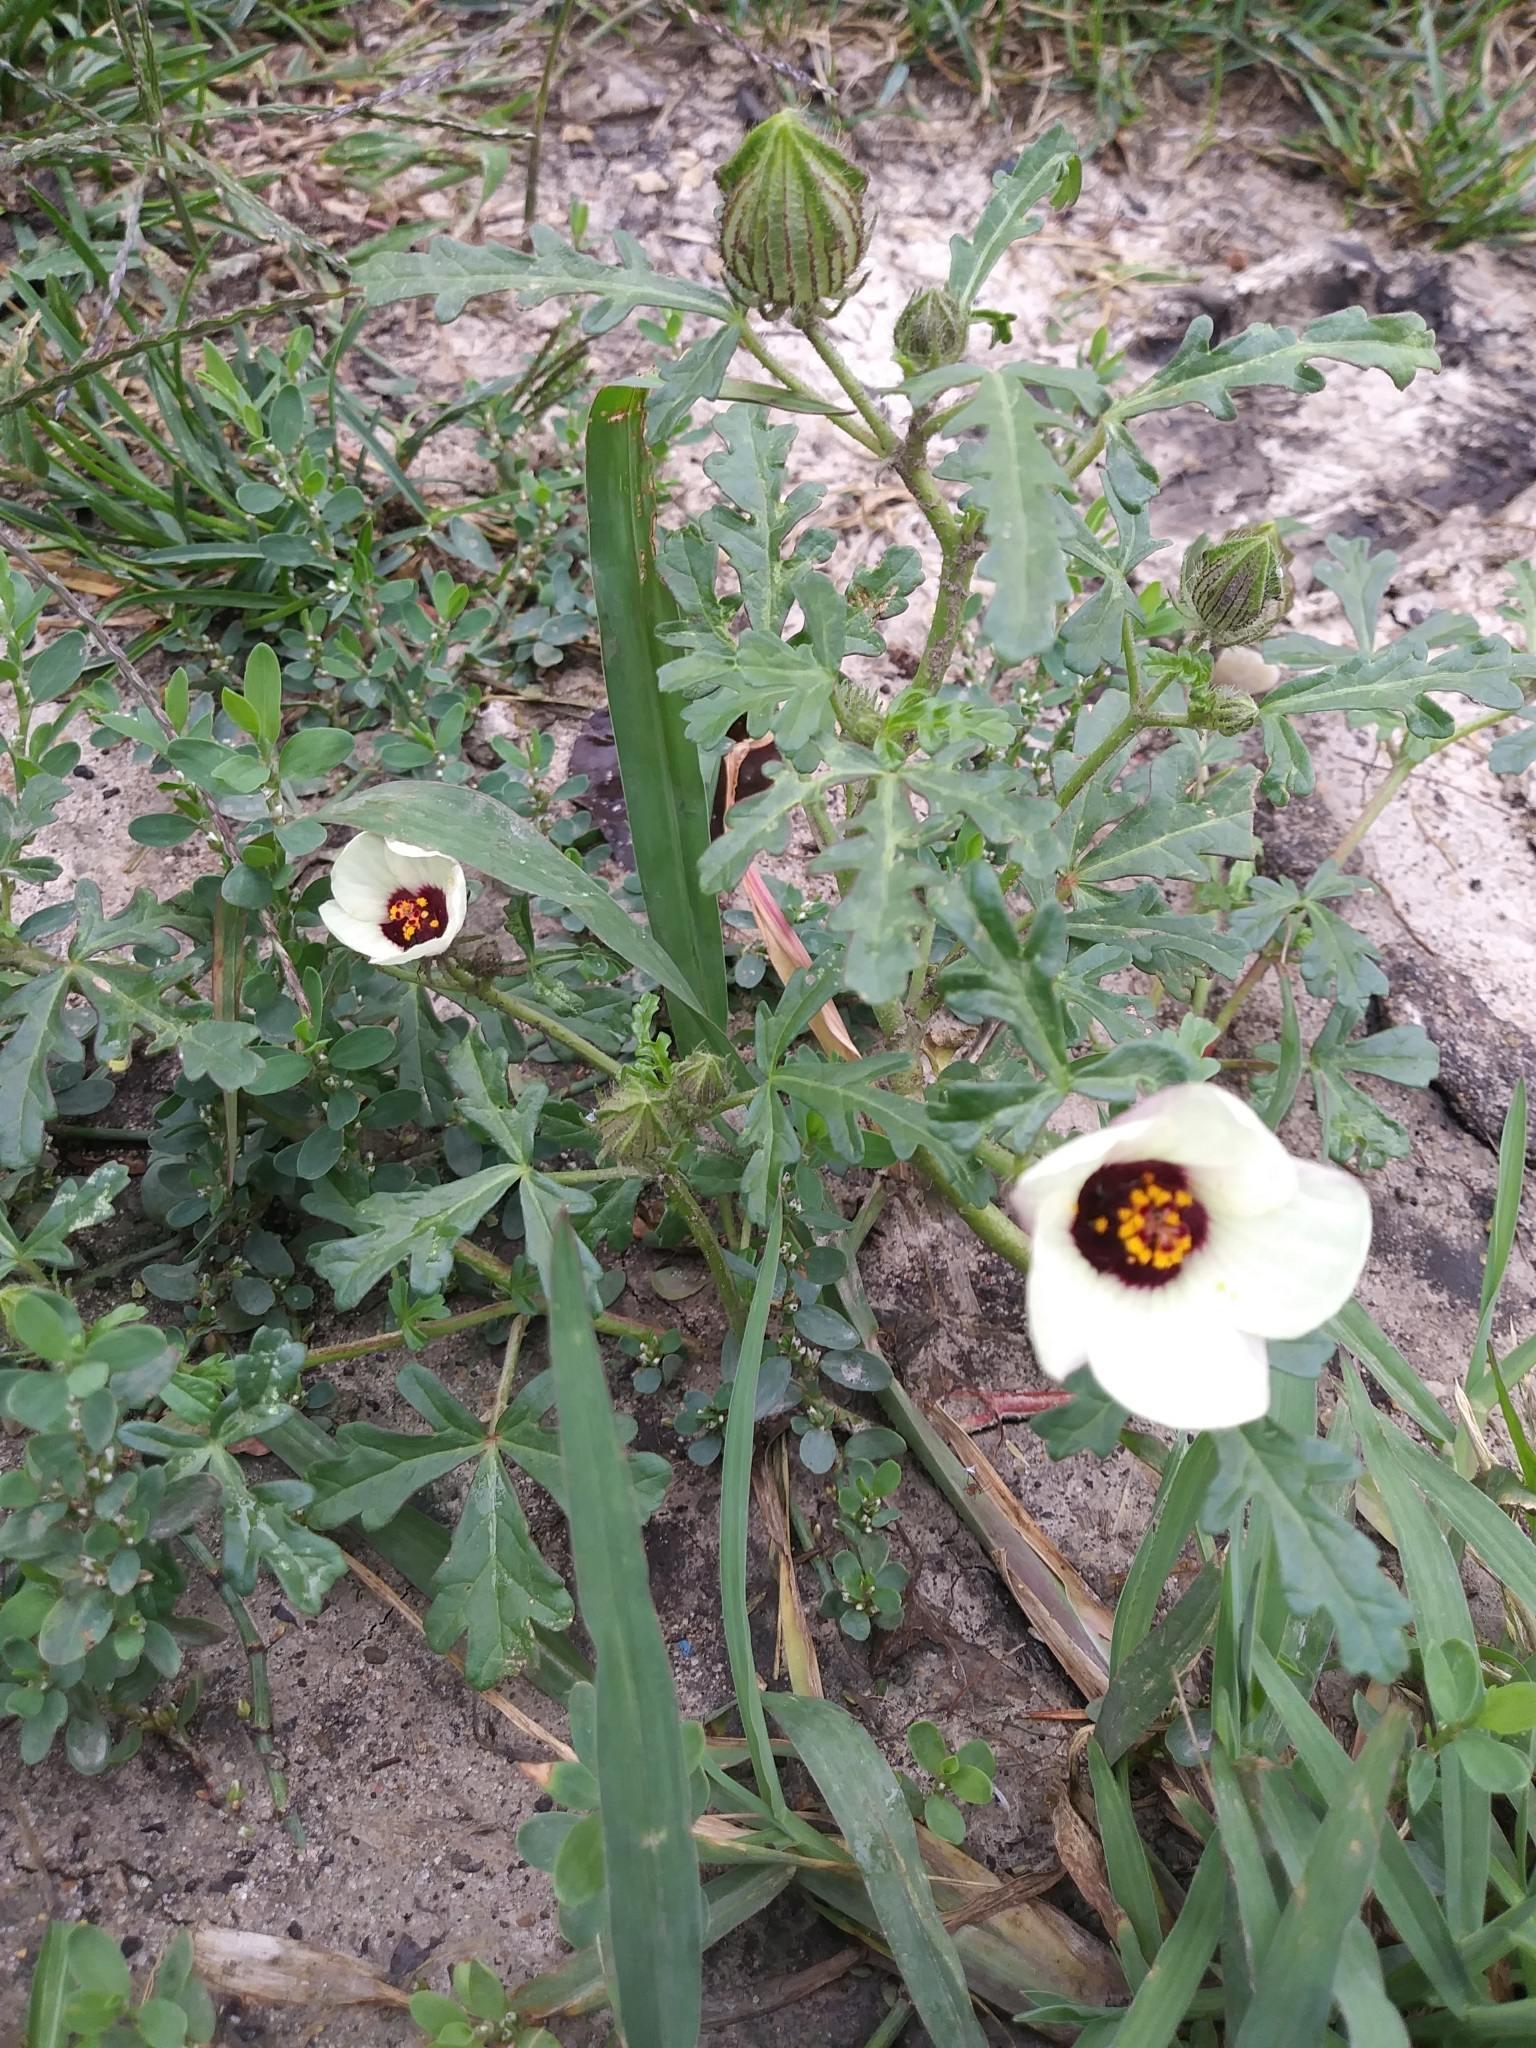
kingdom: Plantae
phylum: Tracheophyta
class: Magnoliopsida
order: Malvales
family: Malvaceae
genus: Hibiscus
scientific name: Hibiscus trionum
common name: Bladder ketmia
